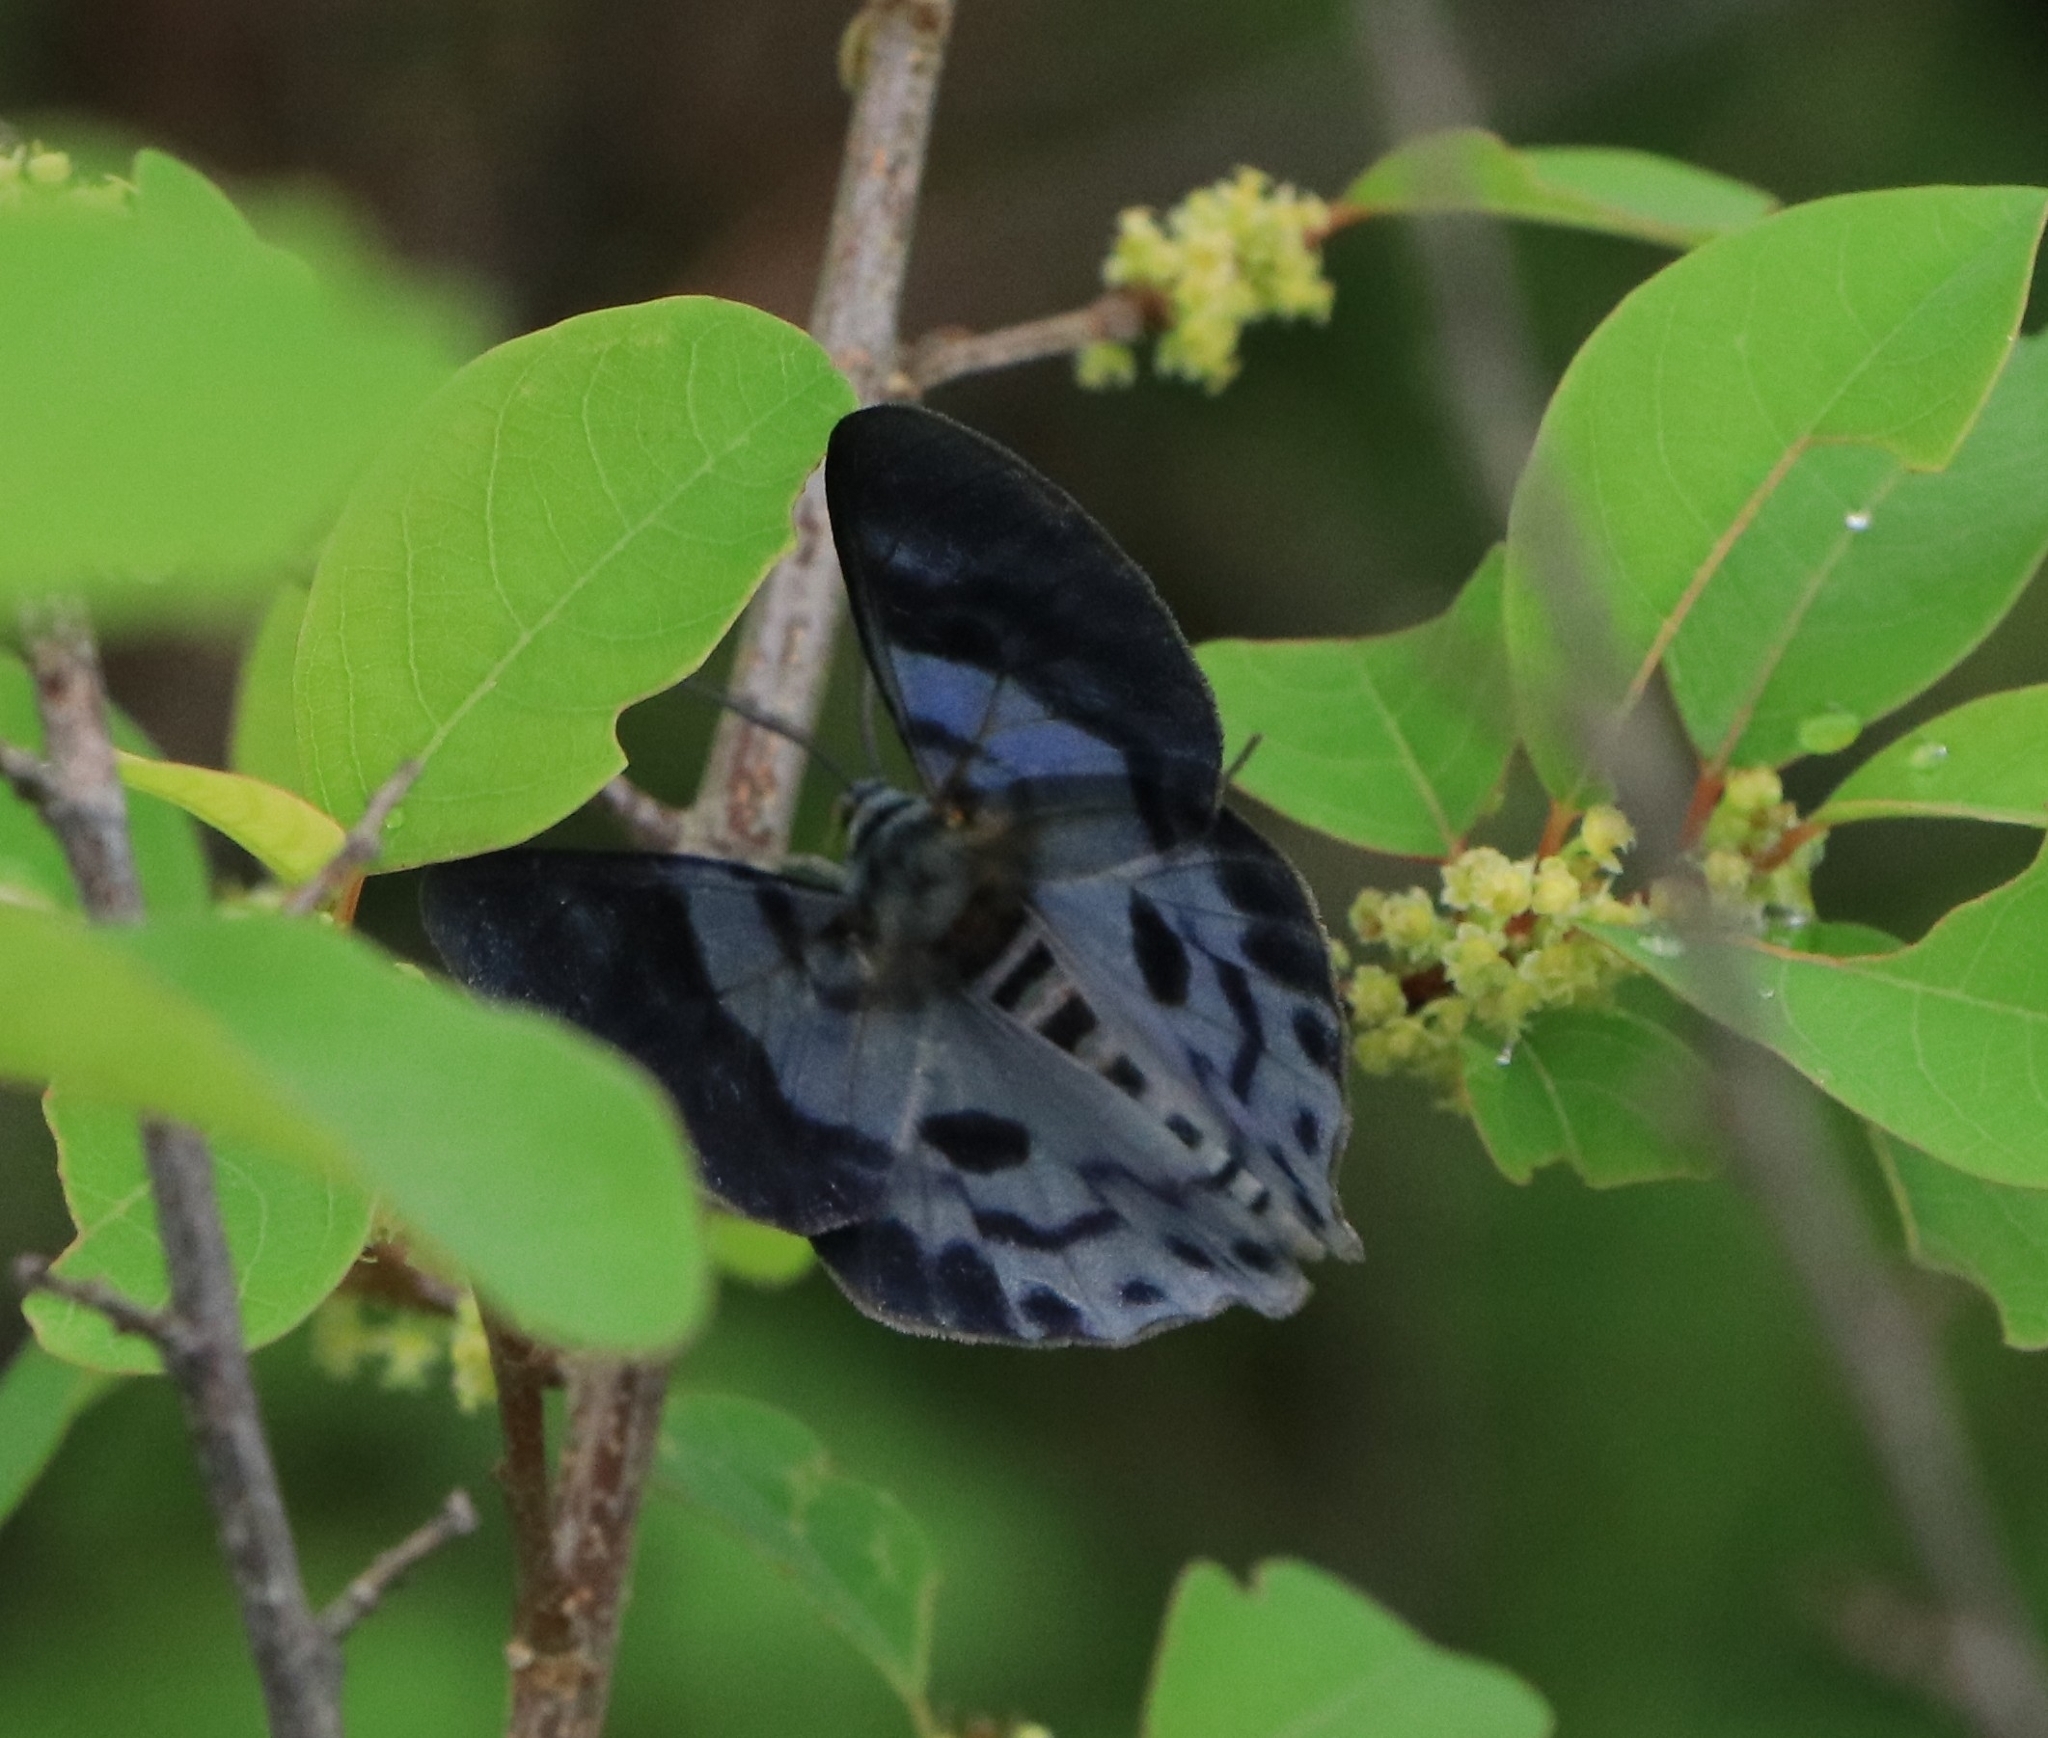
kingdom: Animalia
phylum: Arthropoda
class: Insecta
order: Lepidoptera
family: Geometridae
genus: Dysphania
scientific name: Dysphania percota
